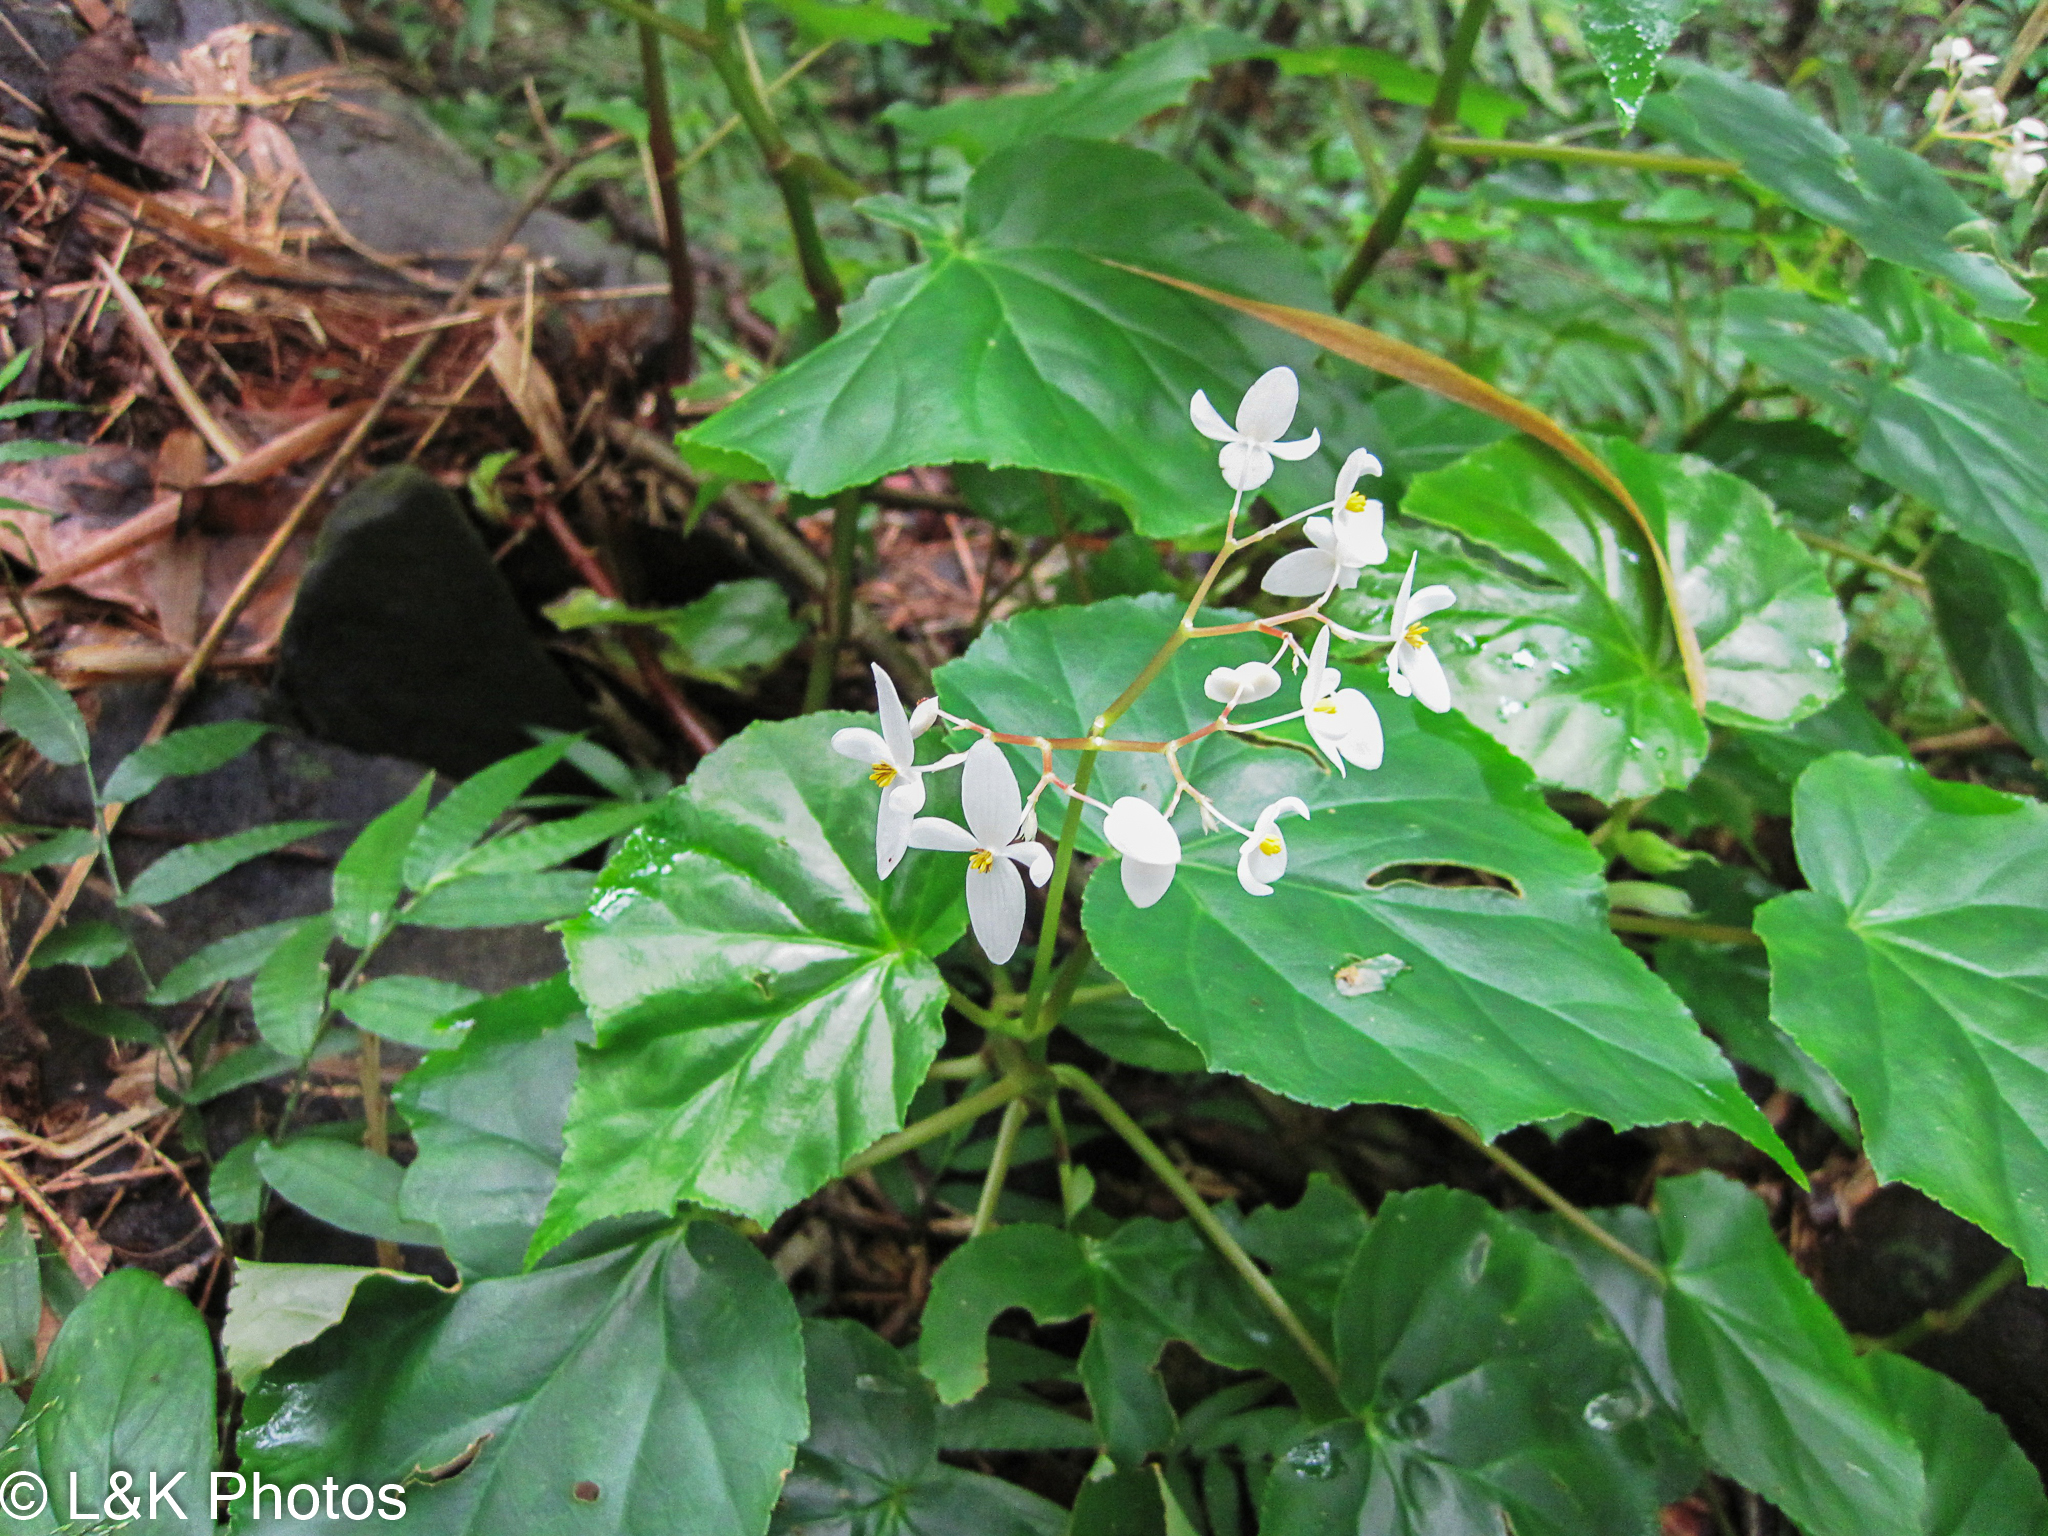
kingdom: Plantae
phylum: Tracheophyta
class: Magnoliopsida
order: Cucurbitales
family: Begoniaceae
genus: Begonia
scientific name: Begonia obliqua
